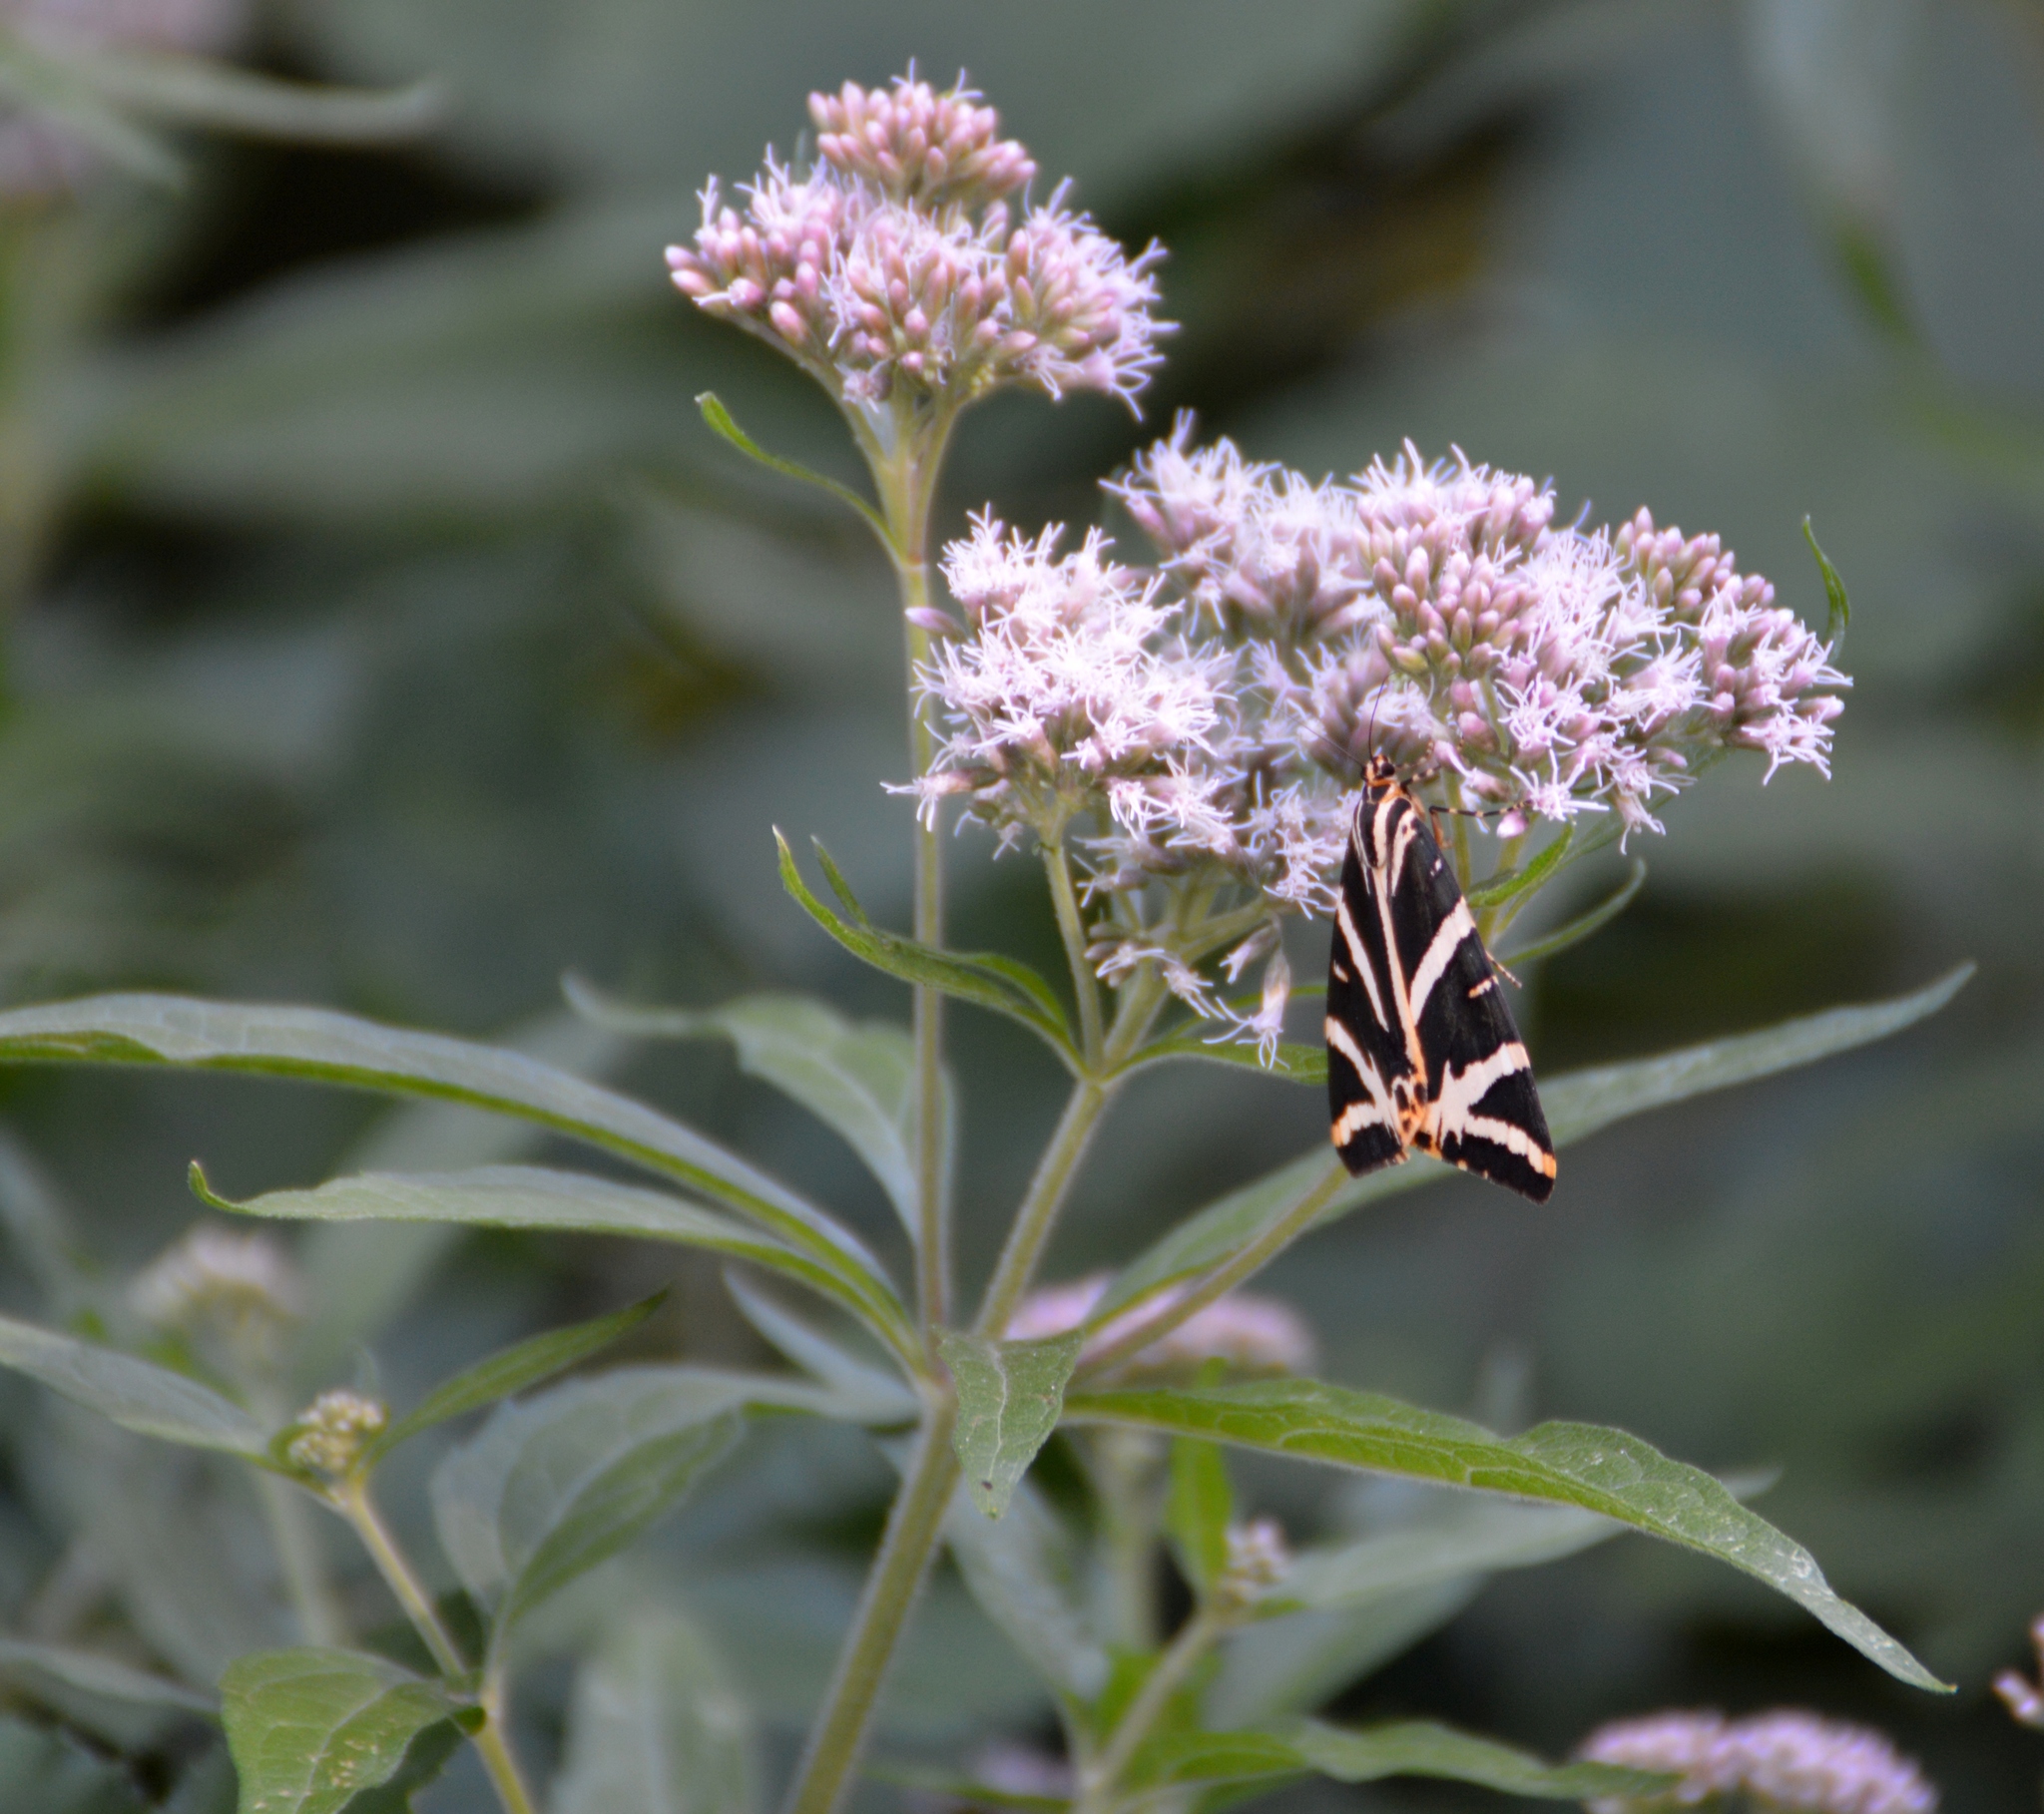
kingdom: Animalia
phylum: Arthropoda
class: Insecta
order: Lepidoptera
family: Erebidae
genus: Euplagia
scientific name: Euplagia quadripunctaria
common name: Jersey tiger
